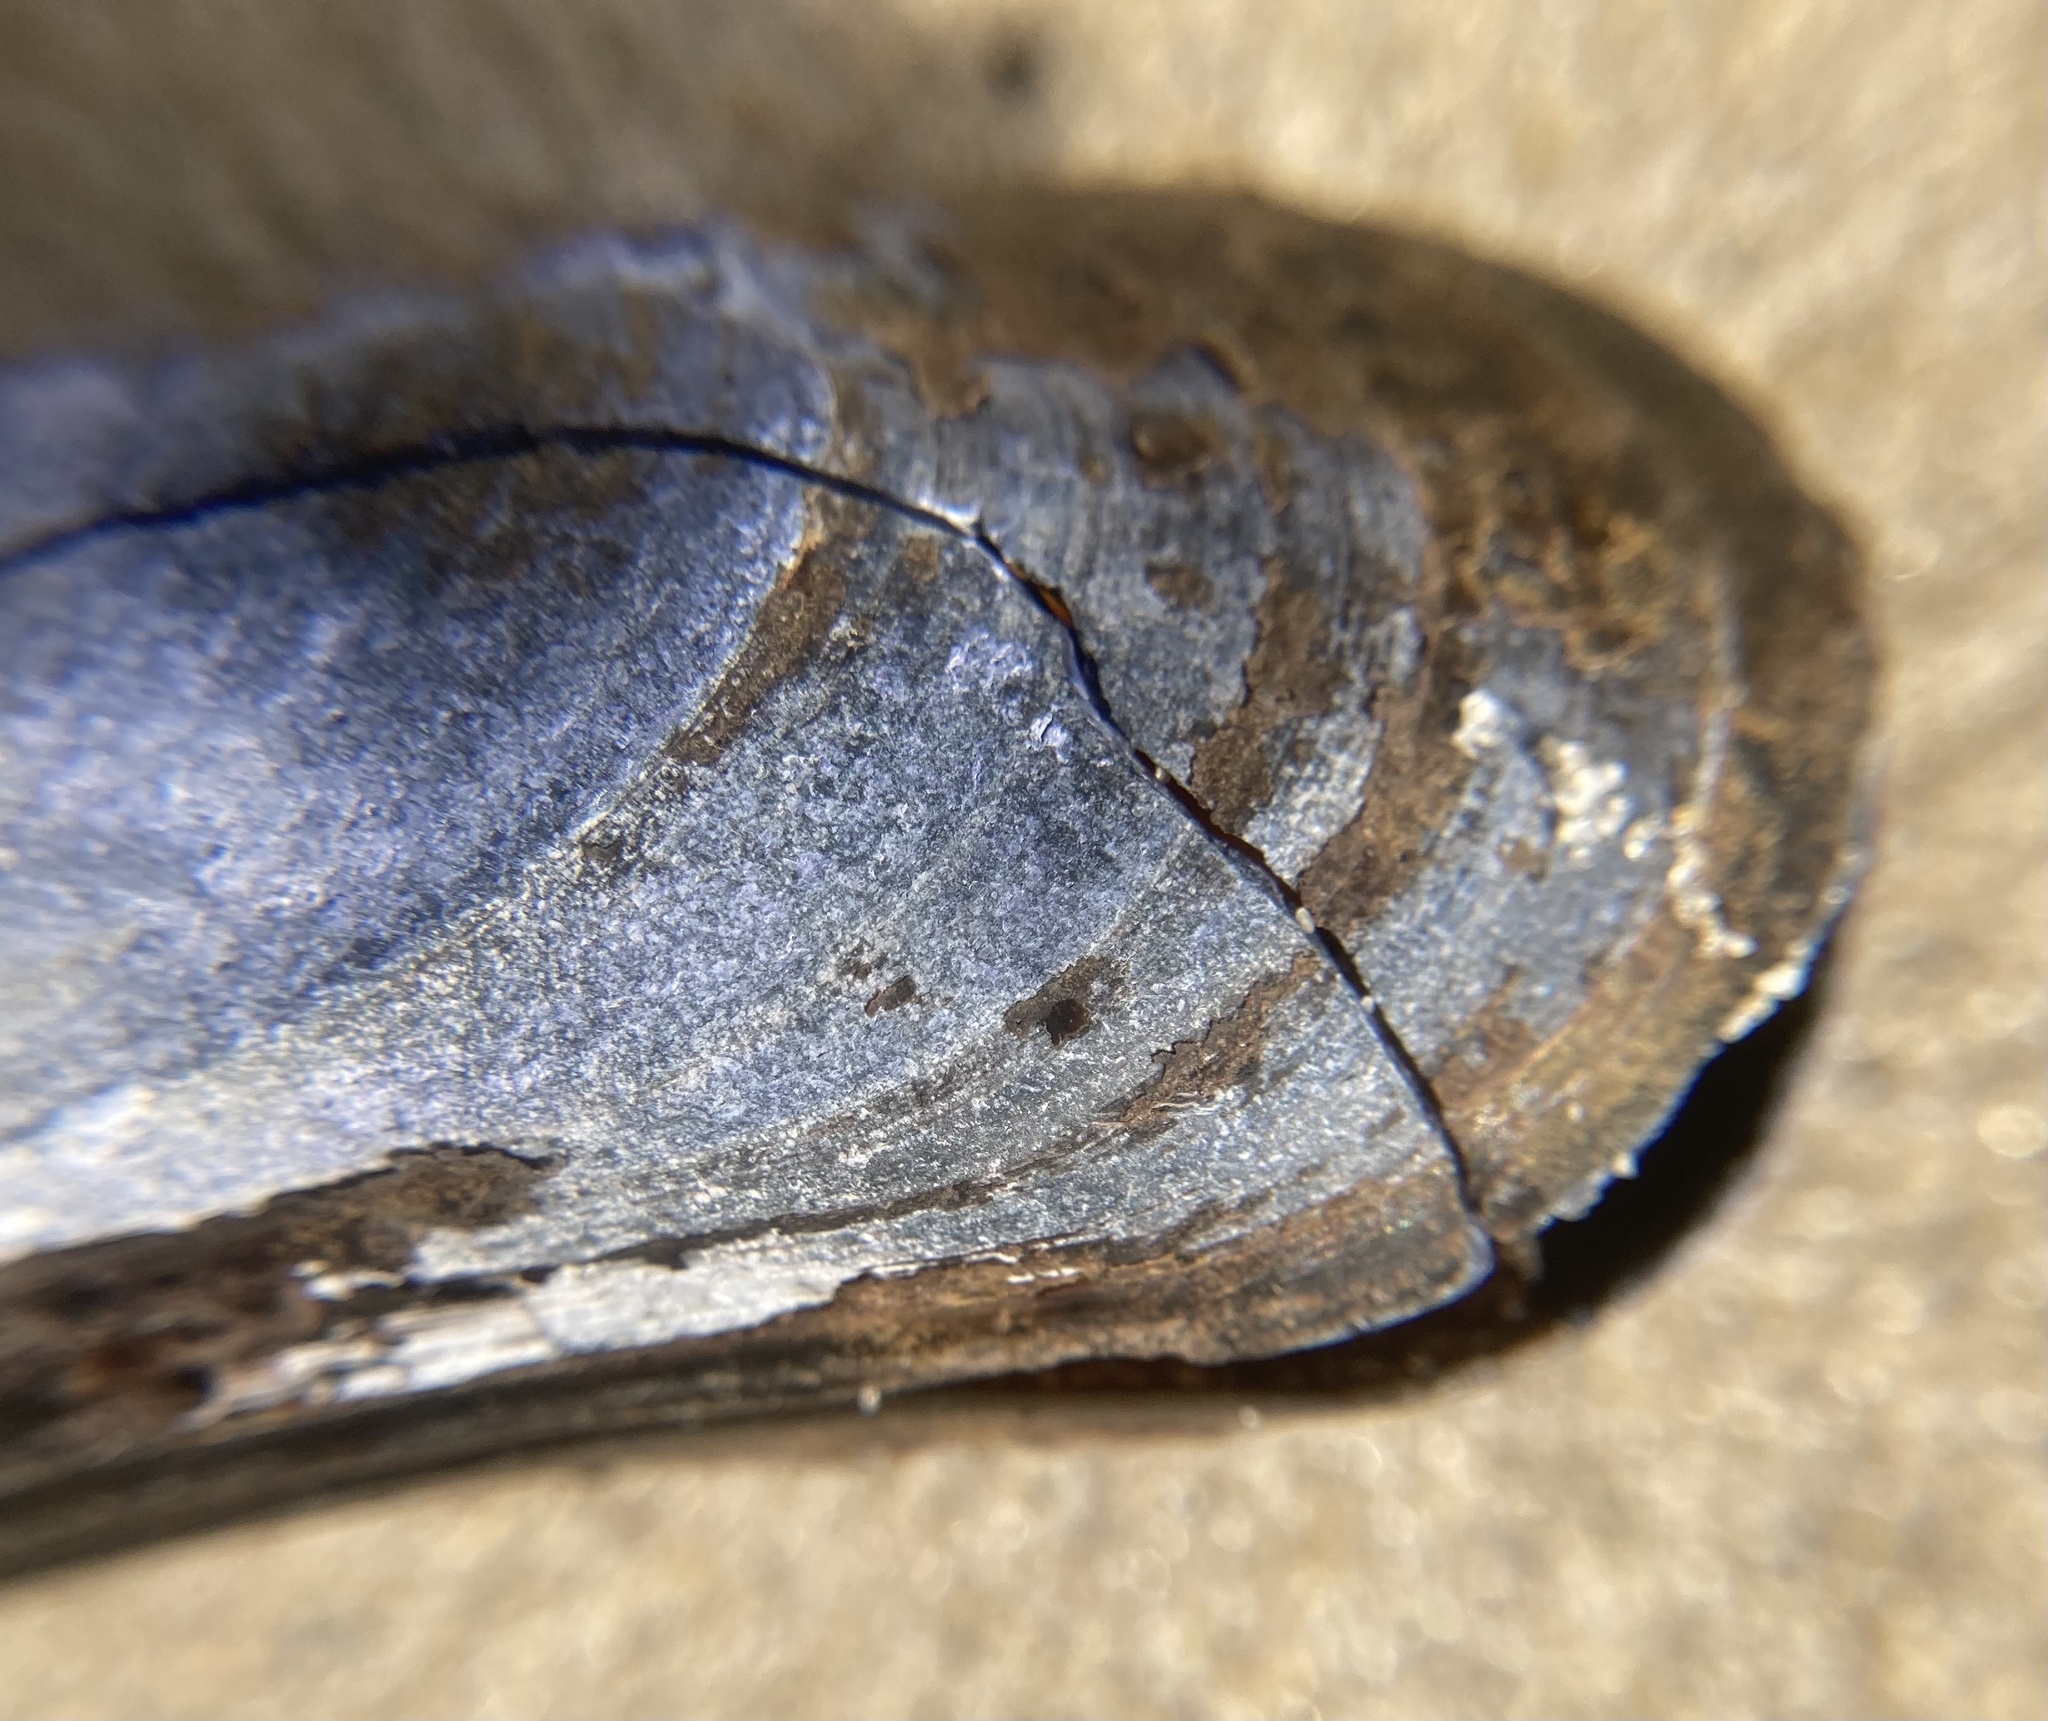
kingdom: Animalia
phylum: Mollusca
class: Bivalvia
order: Mytilida
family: Mytilidae
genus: Mytilus
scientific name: Mytilus edulis
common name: Blue mussel
